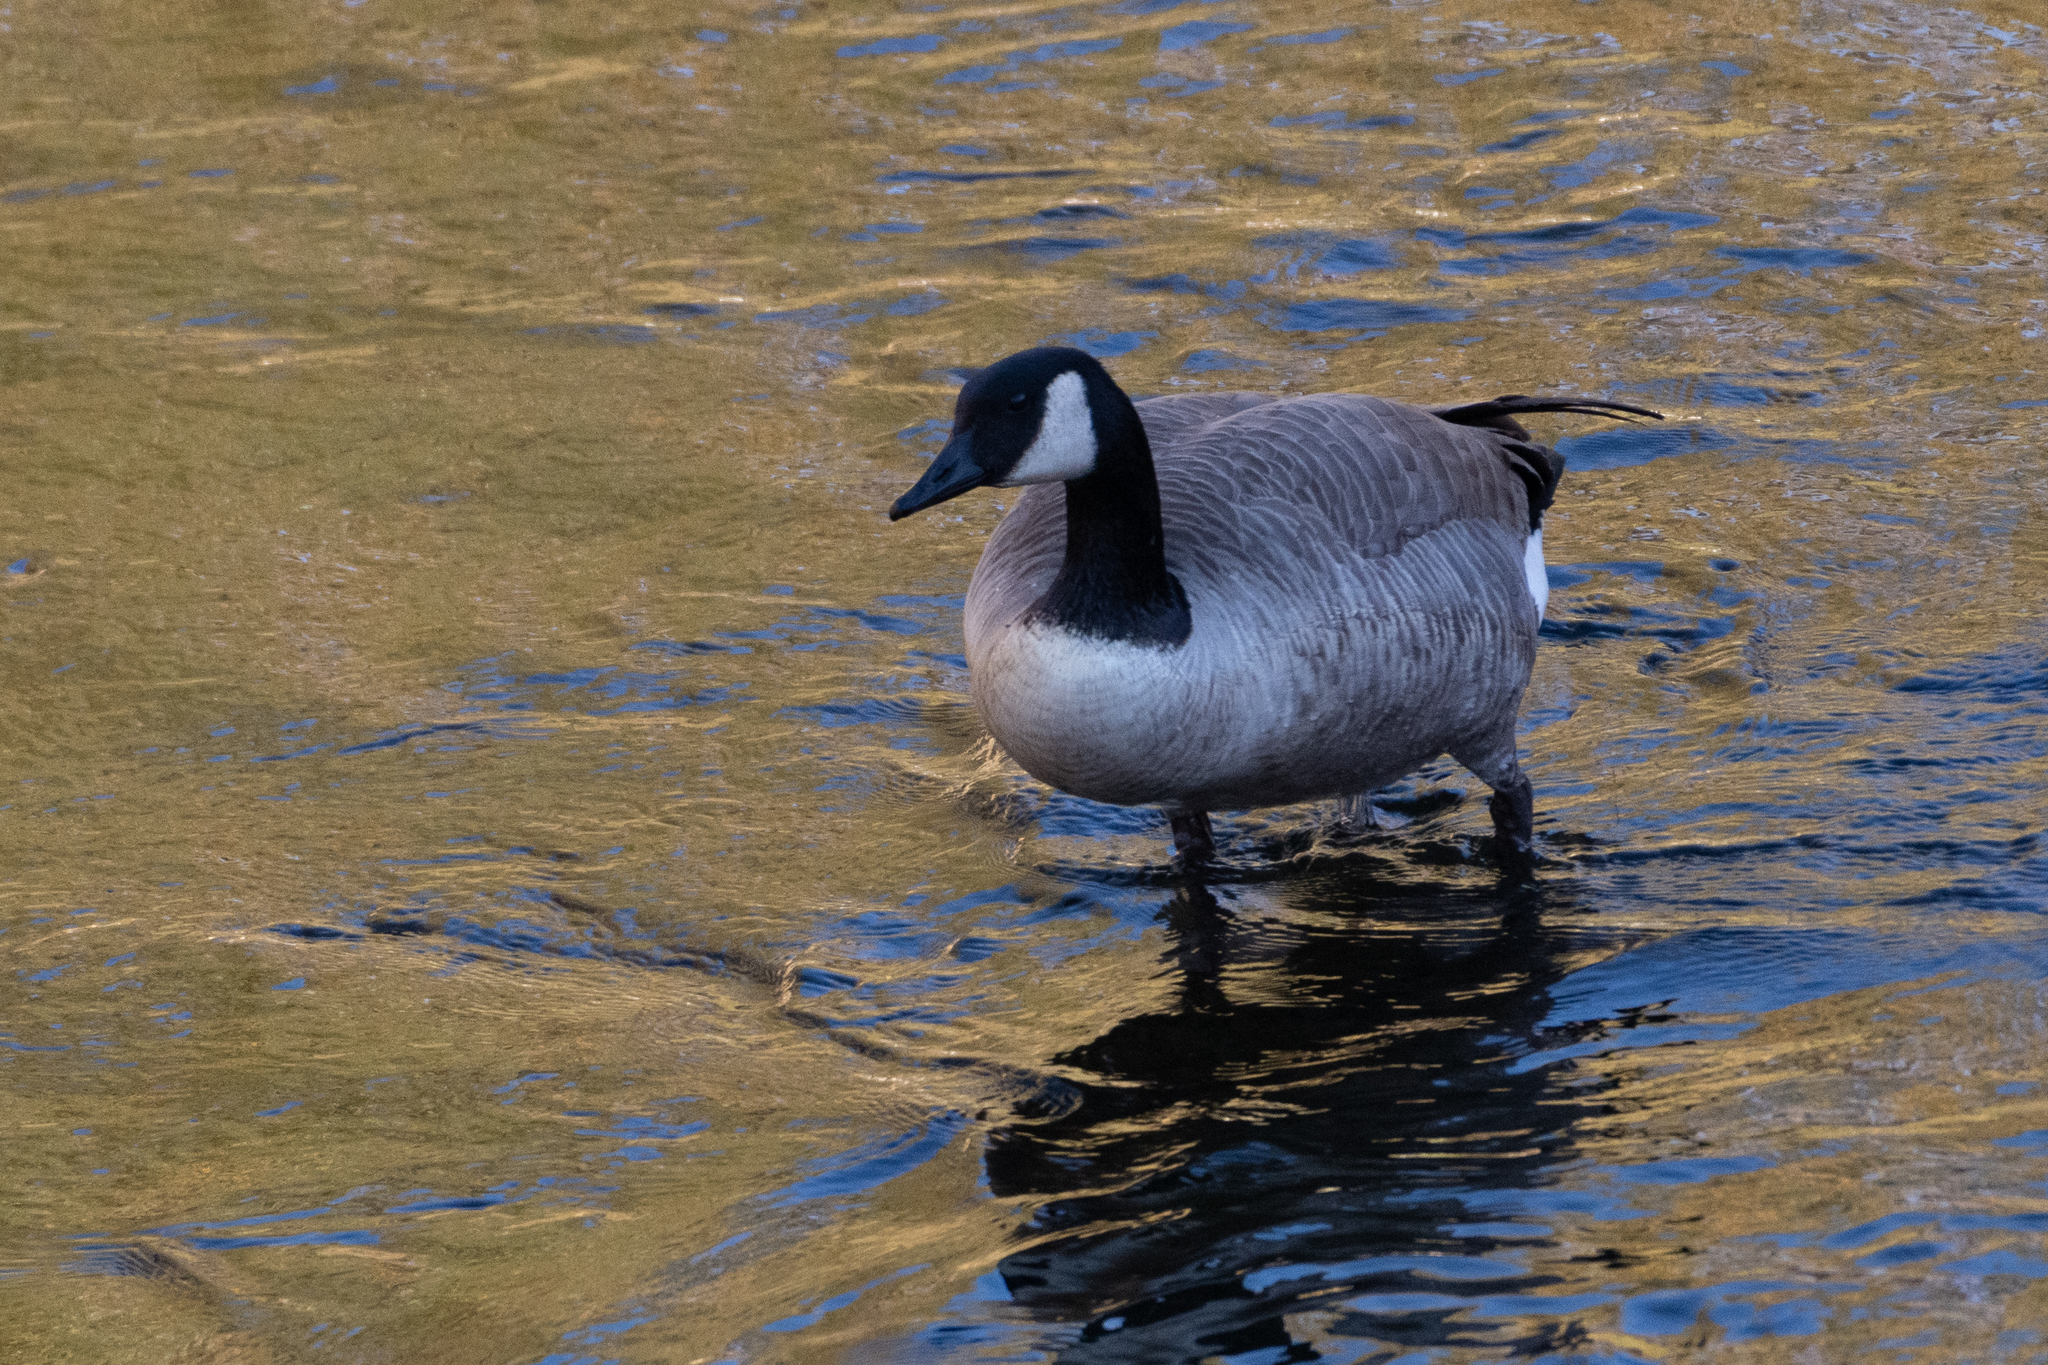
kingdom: Animalia
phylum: Chordata
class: Aves
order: Anseriformes
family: Anatidae
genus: Branta
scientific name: Branta canadensis
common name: Canada goose
